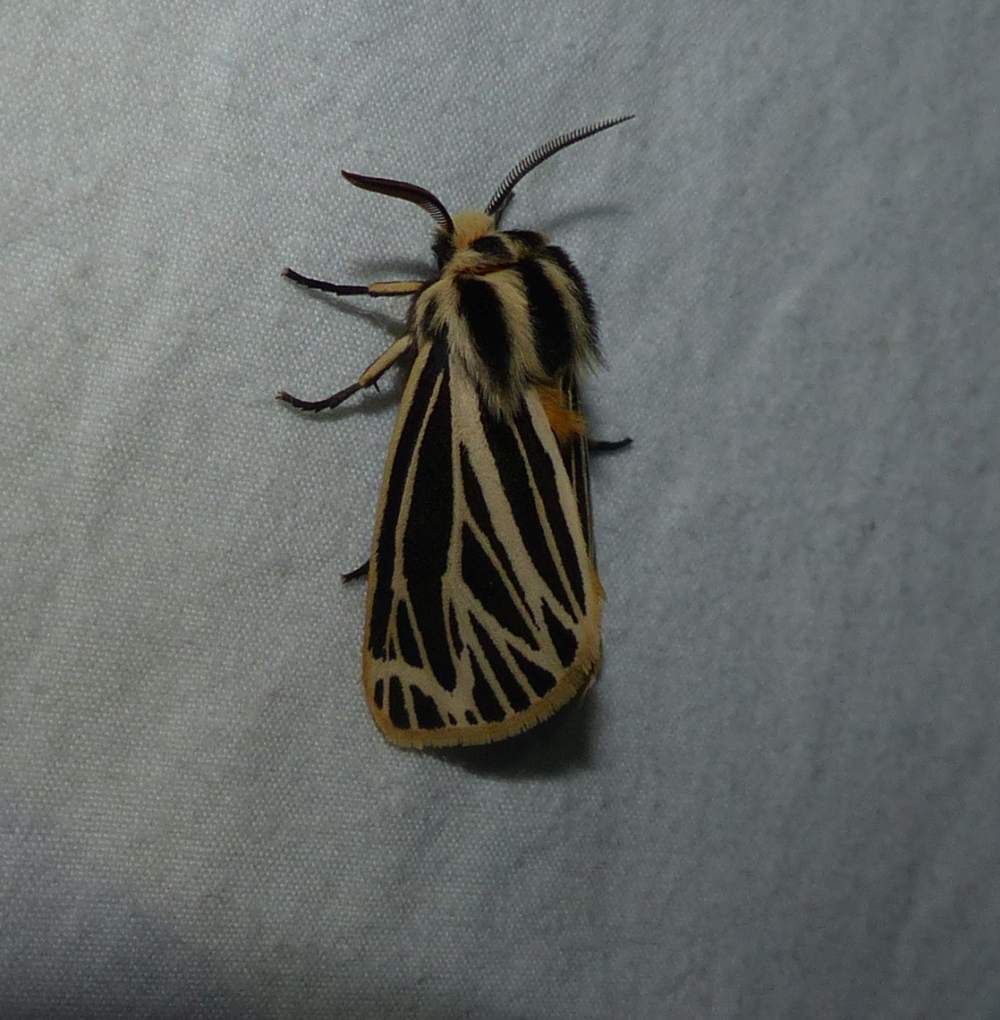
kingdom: Animalia
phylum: Arthropoda
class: Insecta
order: Lepidoptera
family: Erebidae
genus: Grammia
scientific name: Grammia virguncula
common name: Little tiger moth
